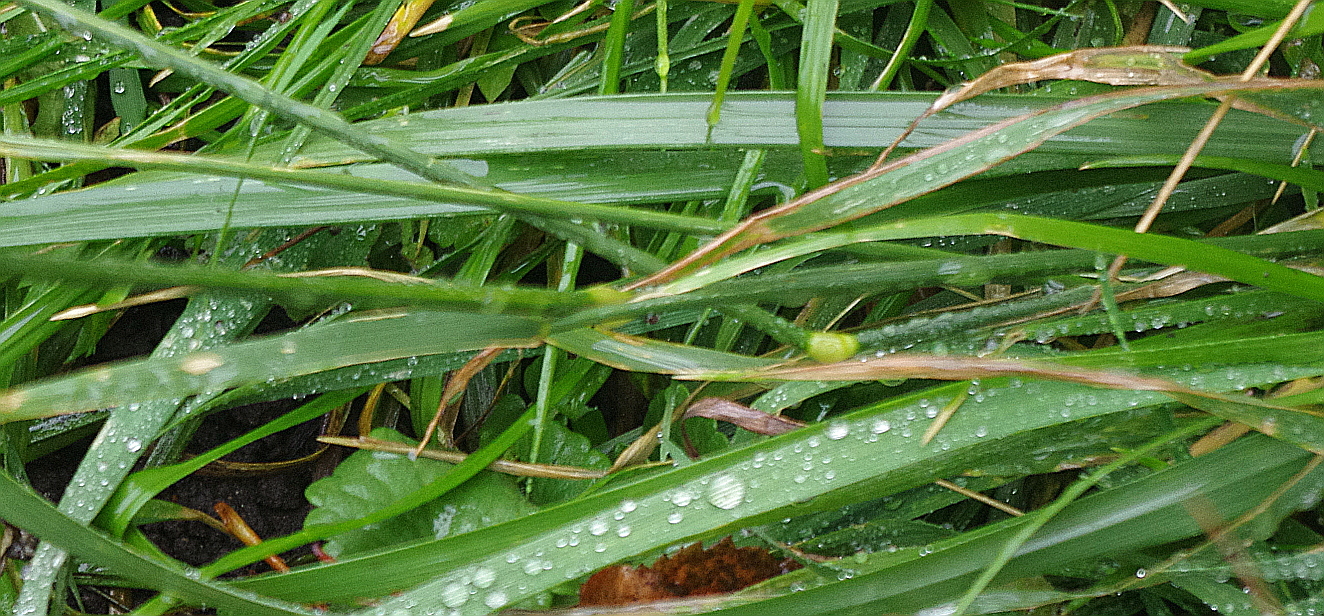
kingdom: Plantae
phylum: Tracheophyta
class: Liliopsida
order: Poales
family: Poaceae
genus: Lolium
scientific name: Lolium pratense
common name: Dover grass
